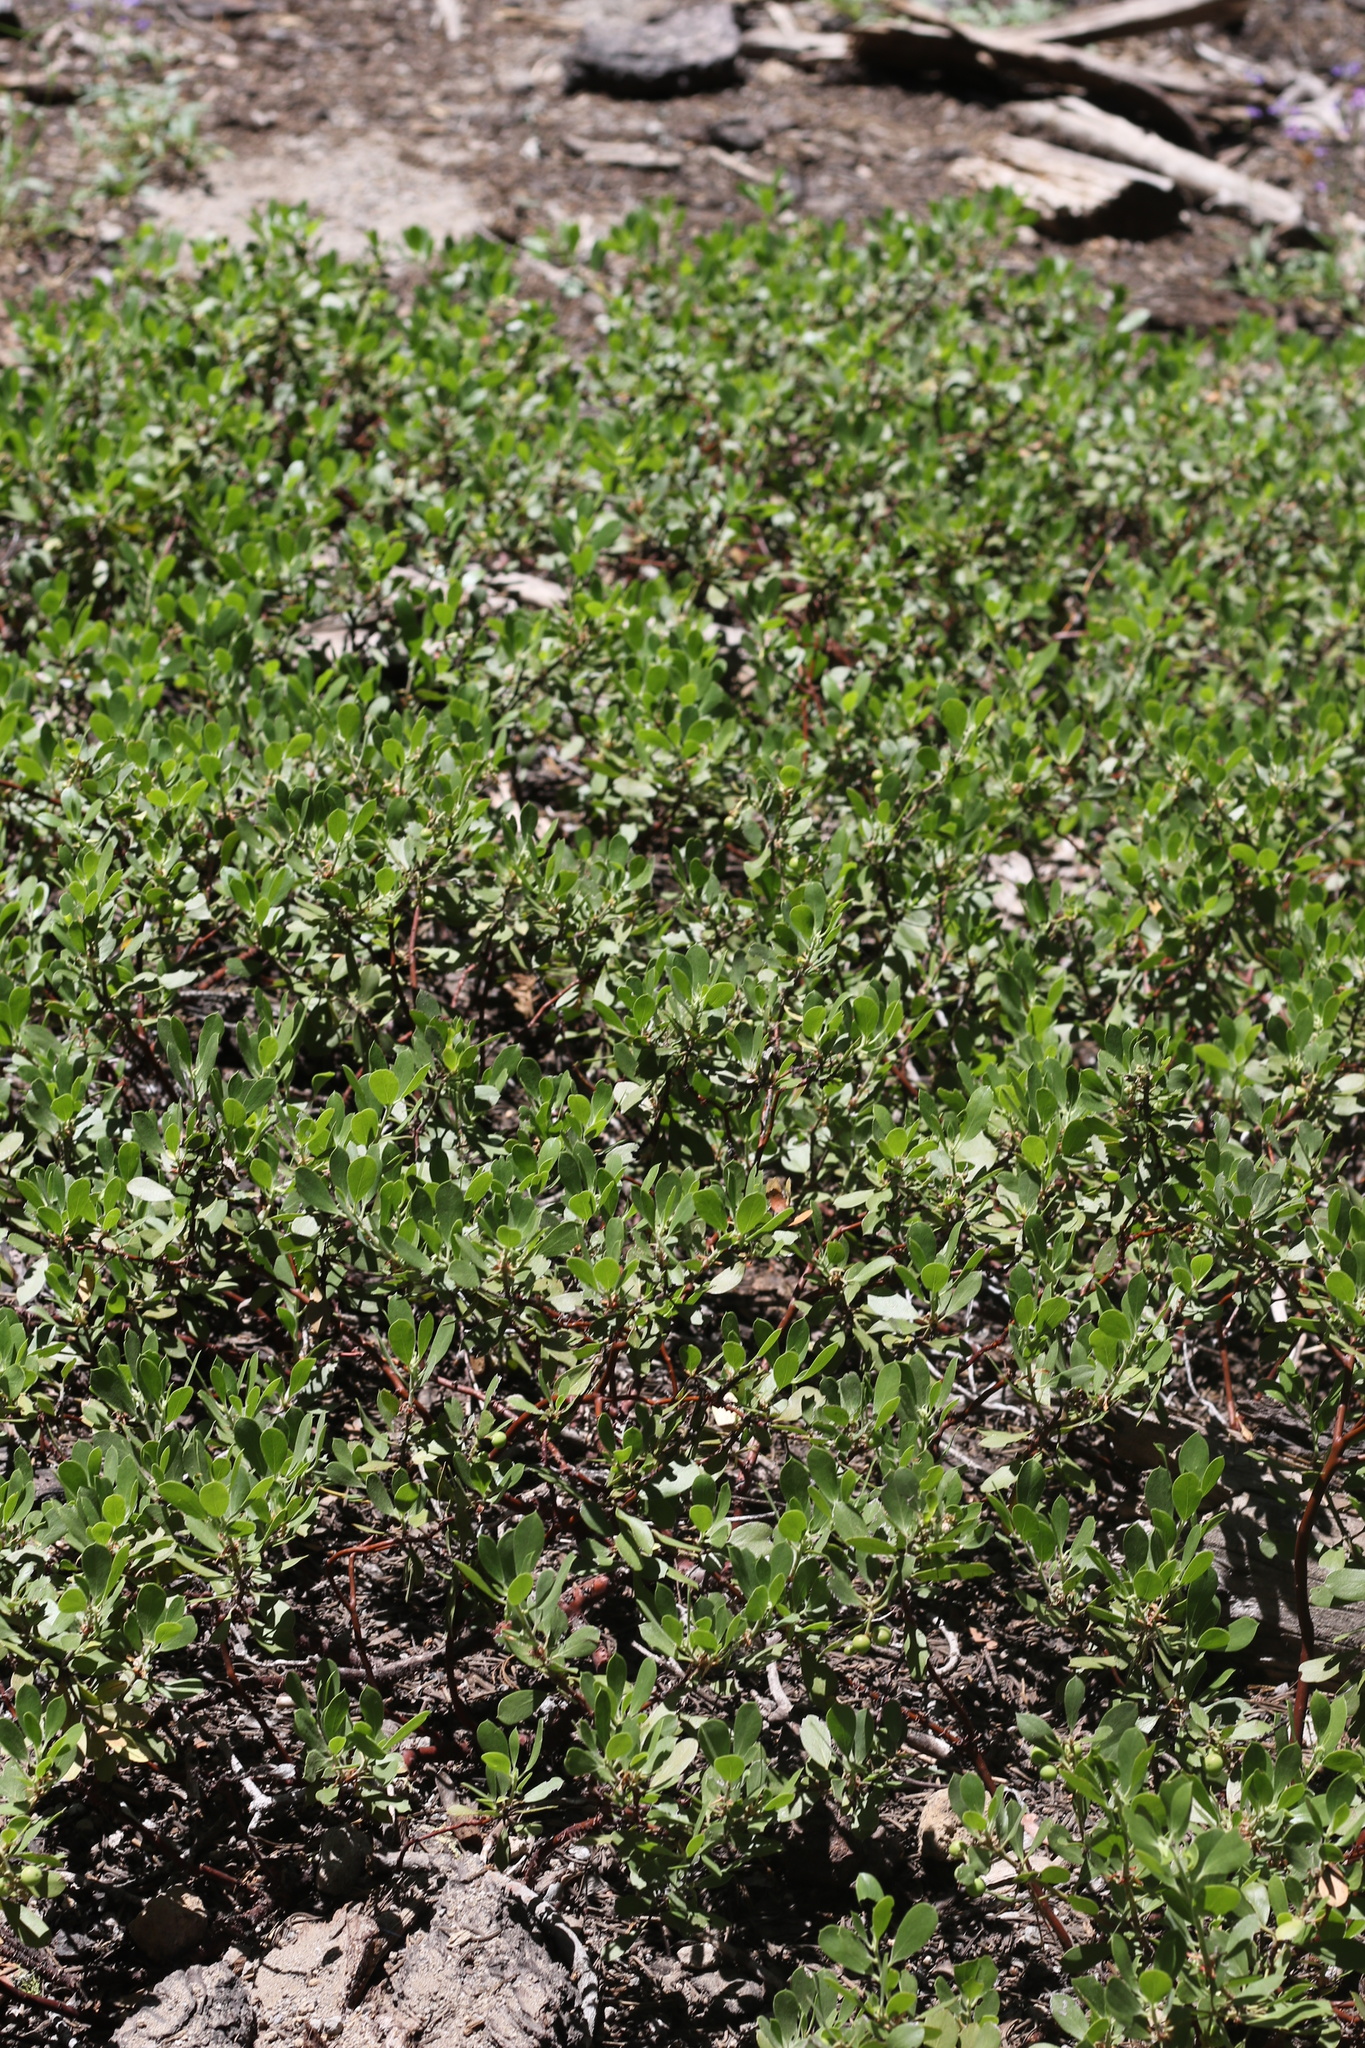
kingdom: Plantae
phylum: Tracheophyta
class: Magnoliopsida
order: Ericales
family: Ericaceae
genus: Arctostaphylos
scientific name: Arctostaphylos nevadensis
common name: Pinemat manzanita
